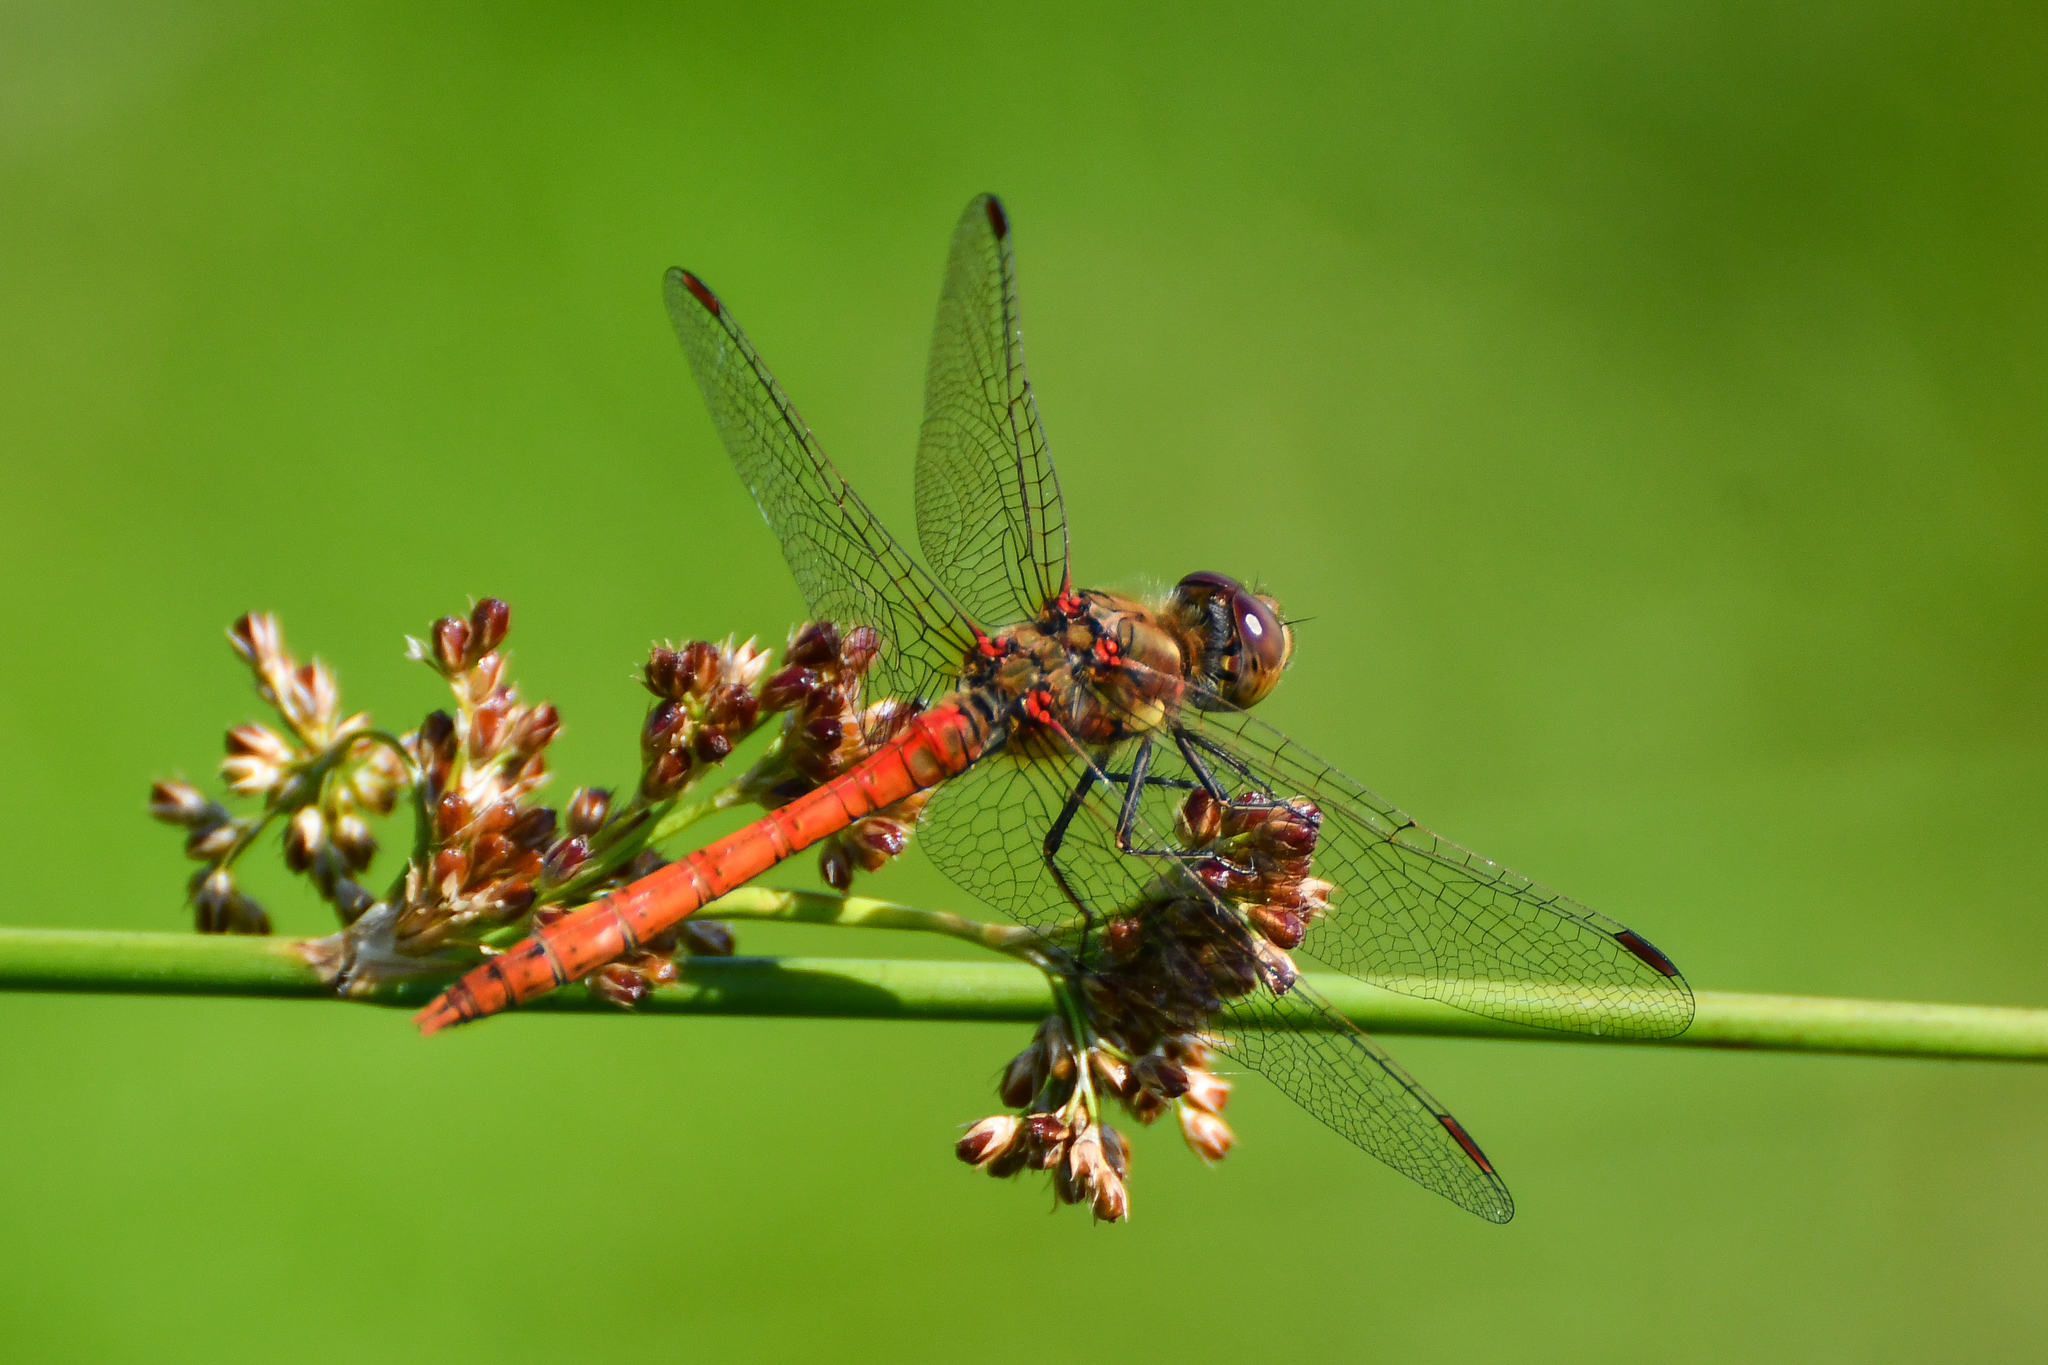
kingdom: Animalia
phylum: Arthropoda
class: Insecta
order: Odonata
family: Libellulidae
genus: Sympetrum
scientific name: Sympetrum striolatum
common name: Common darter
